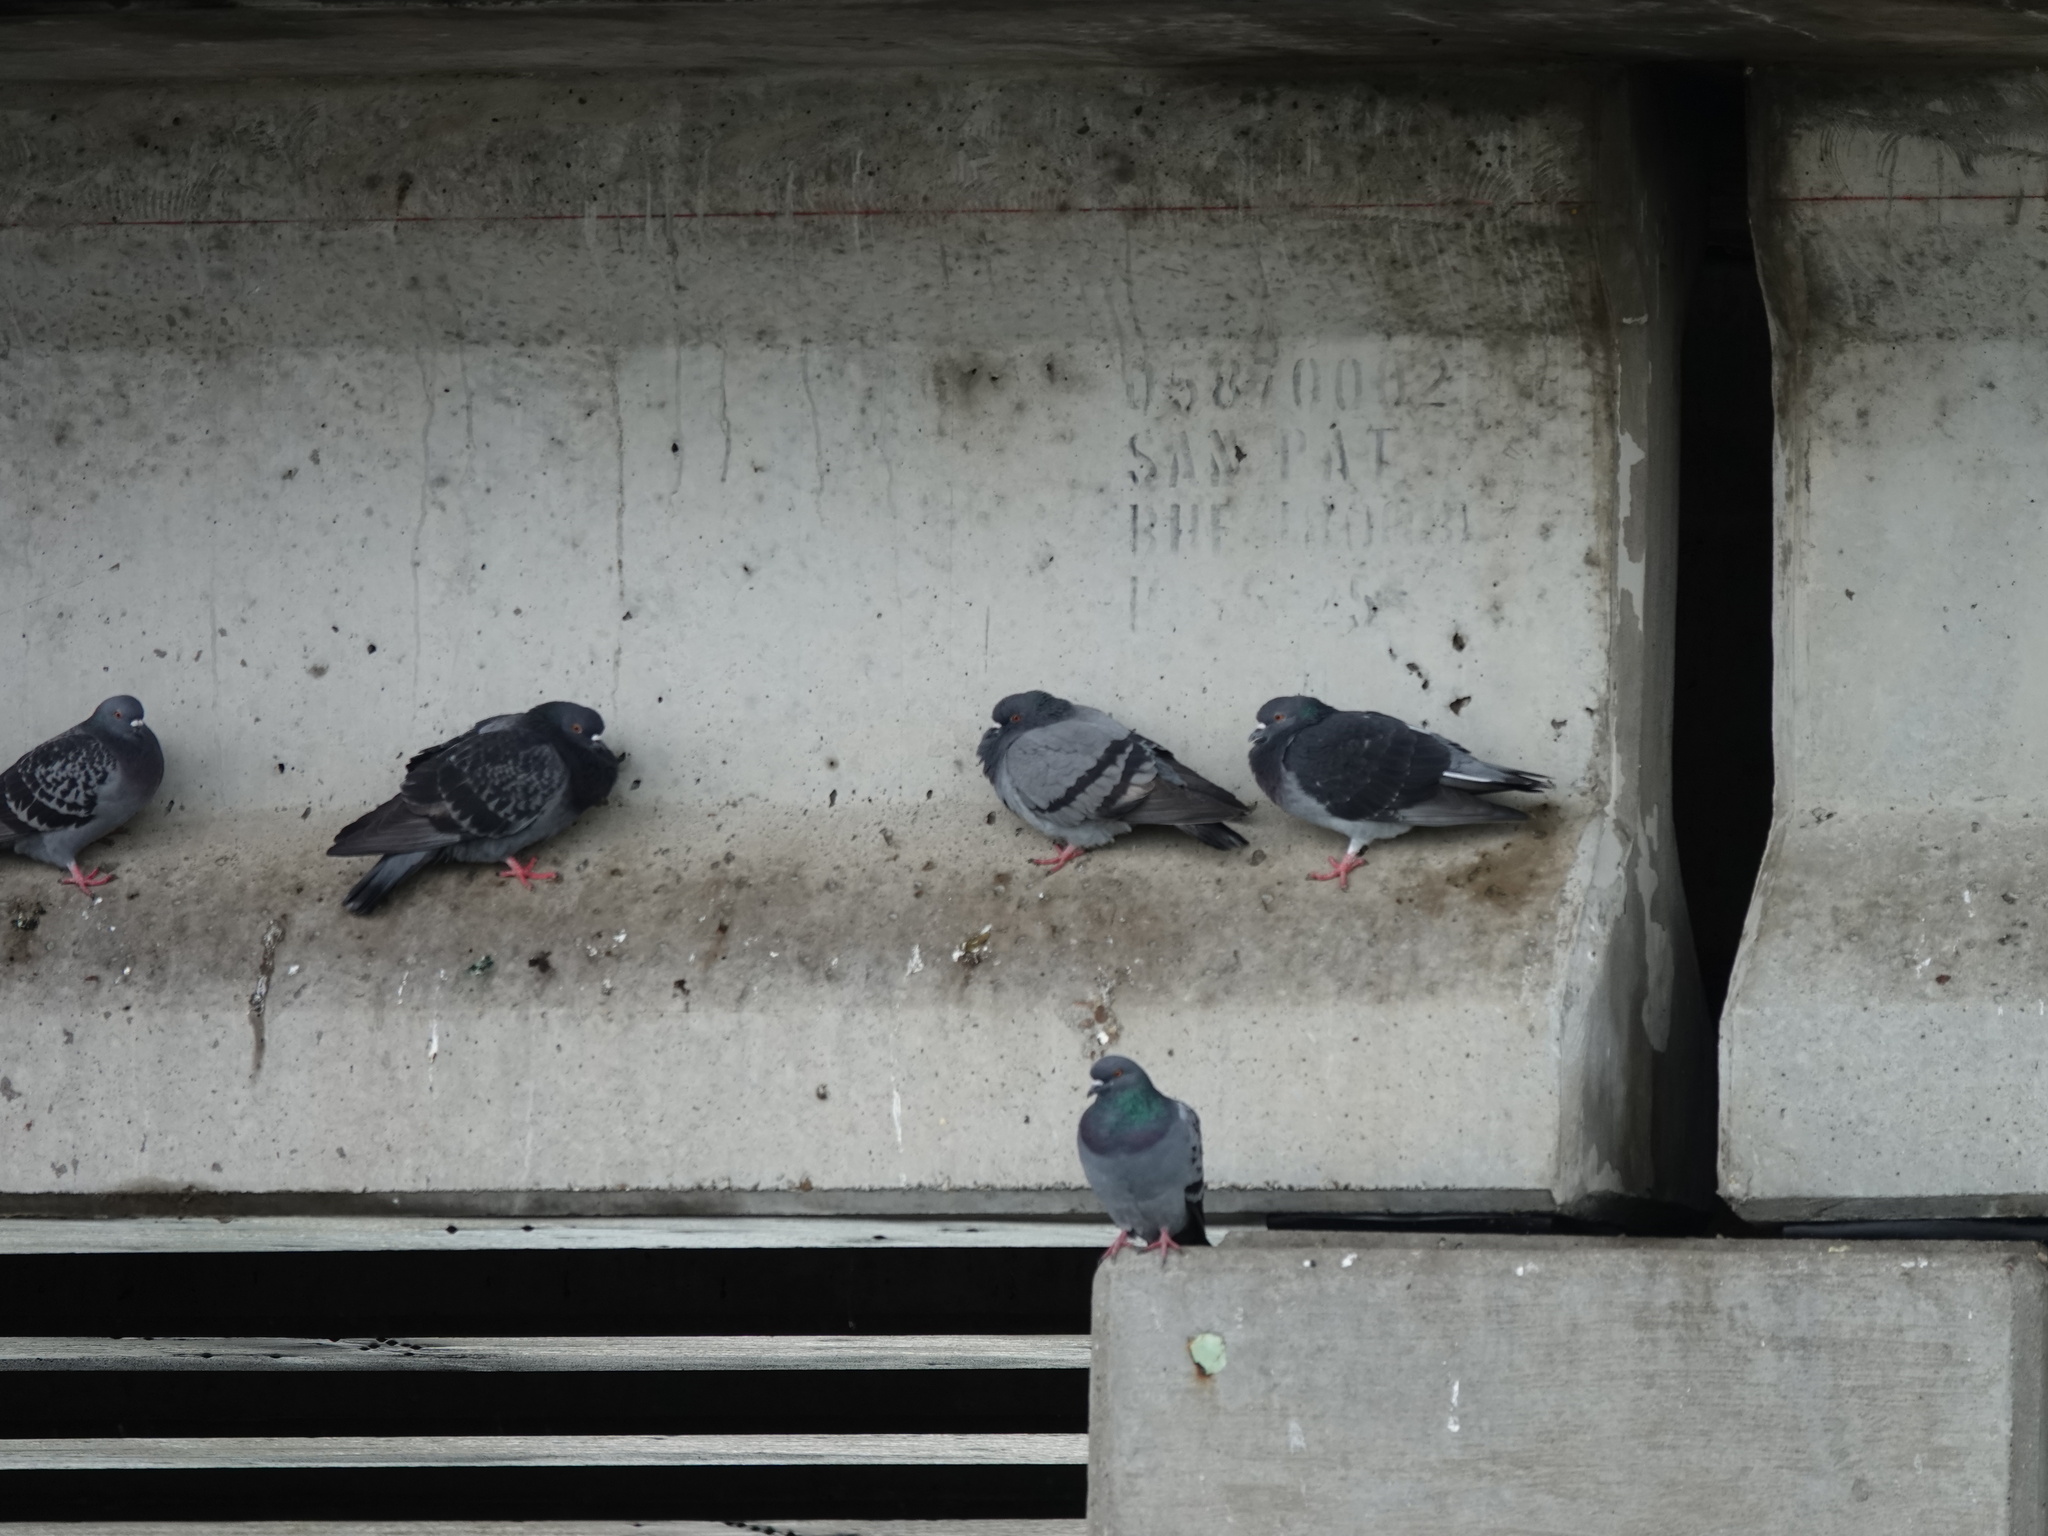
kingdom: Animalia
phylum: Chordata
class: Aves
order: Columbiformes
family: Columbidae
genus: Columba
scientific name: Columba livia
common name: Rock pigeon
